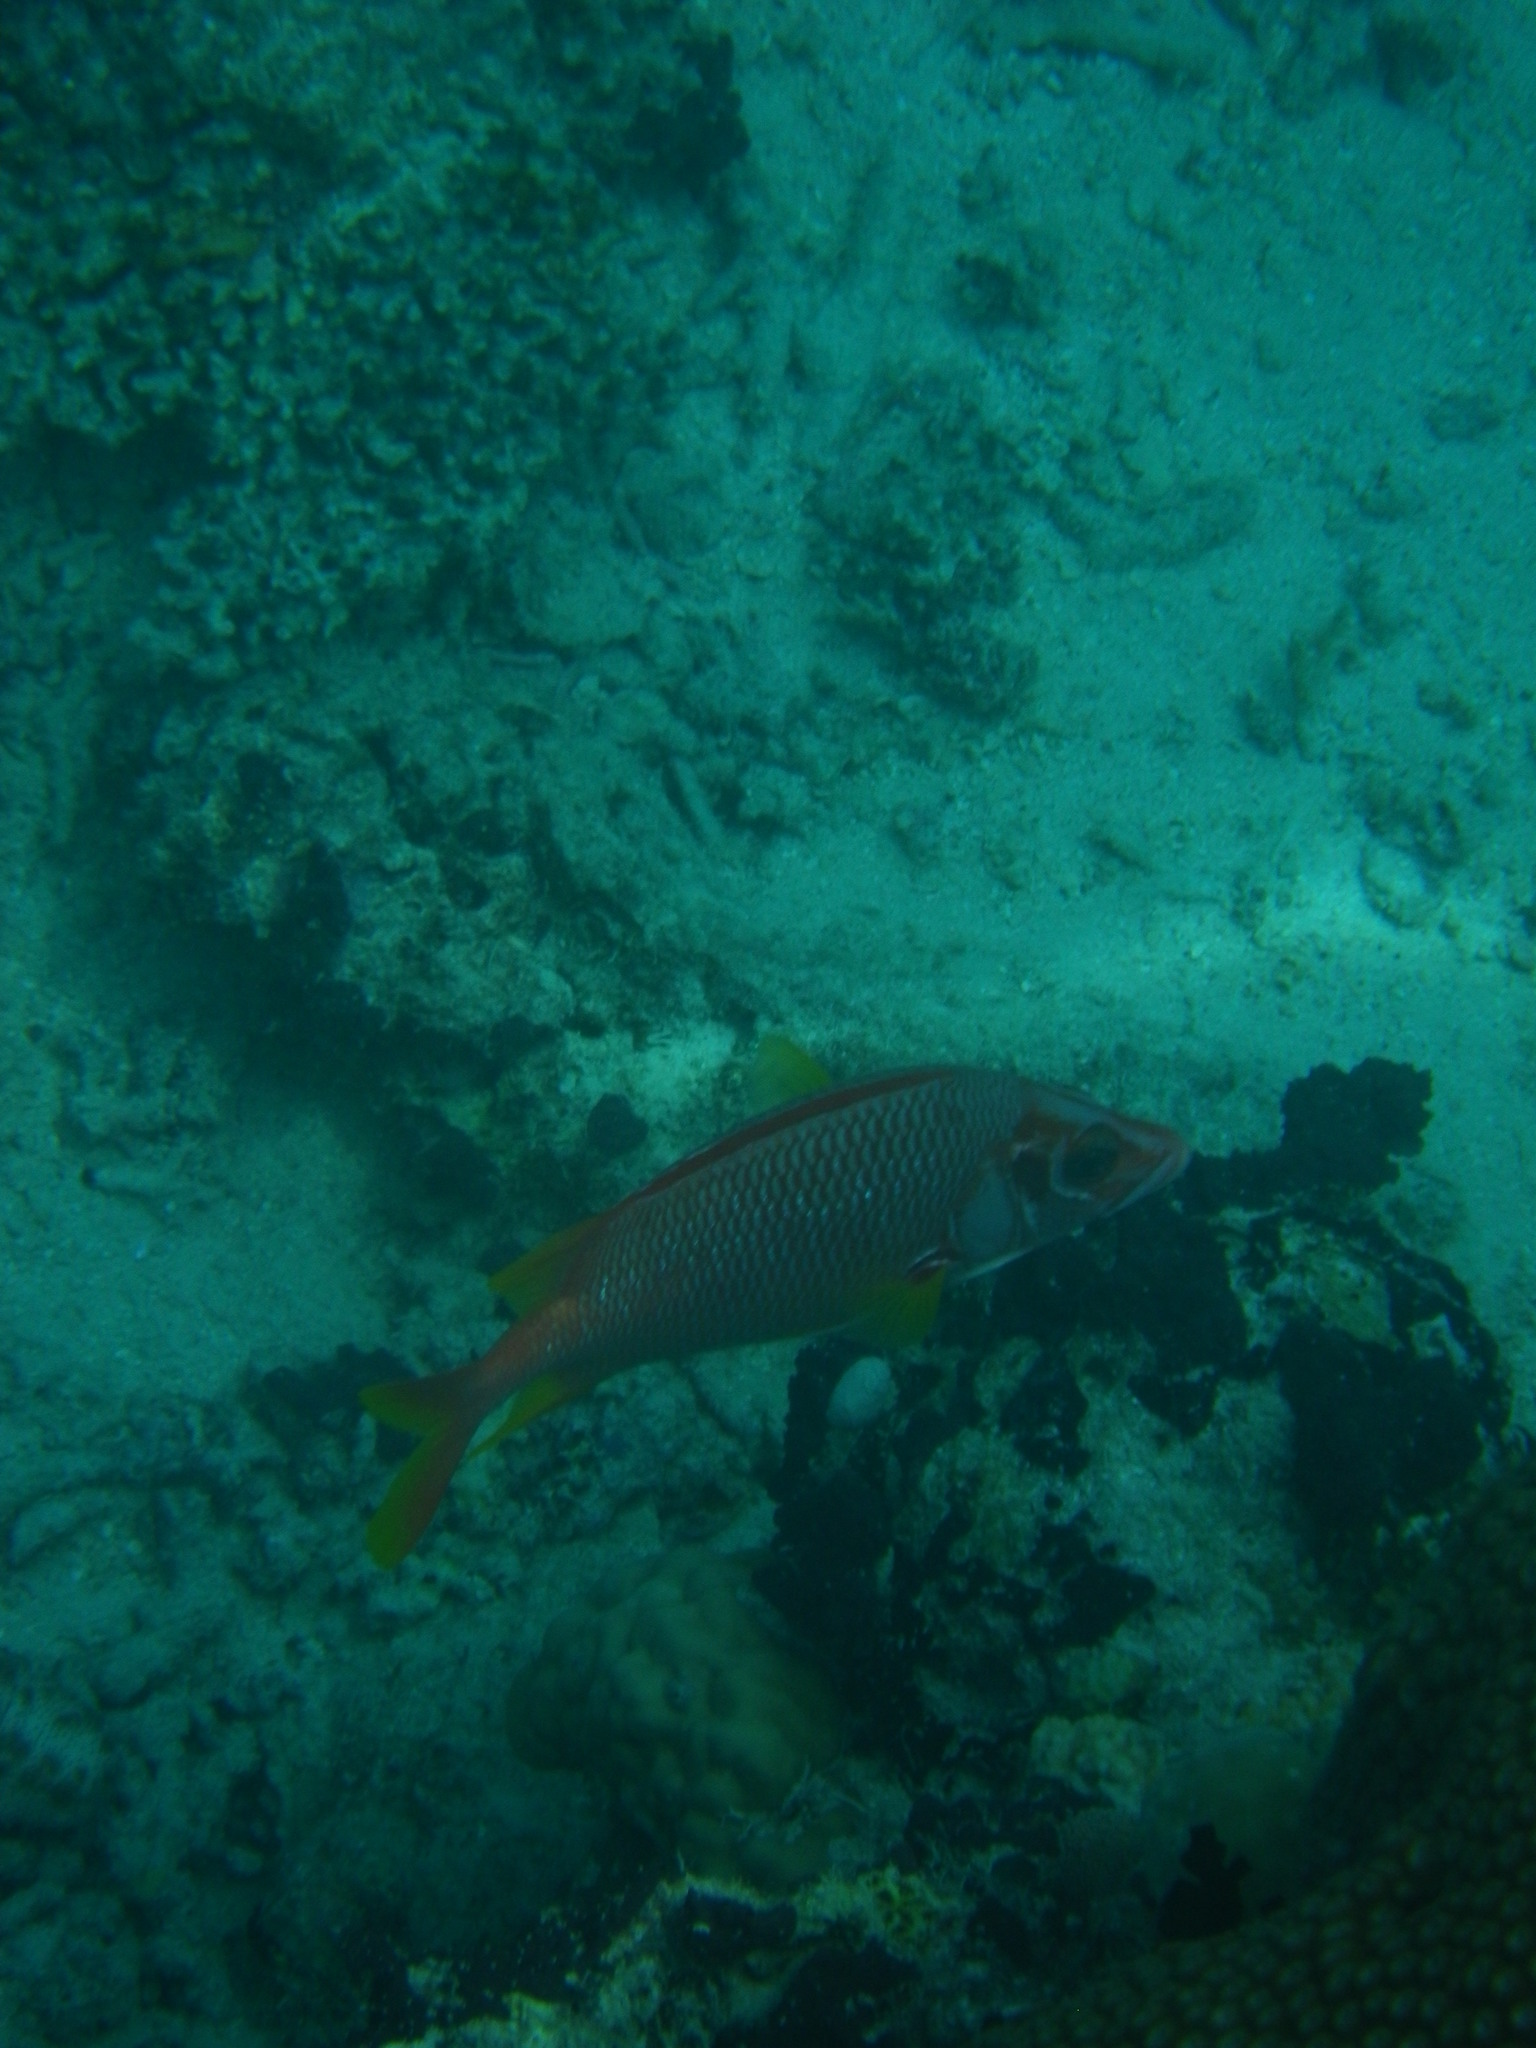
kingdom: Animalia
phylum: Chordata
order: Beryciformes
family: Holocentridae
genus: Sargocentron
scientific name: Sargocentron spiniferum
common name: Giant squirrelfish
